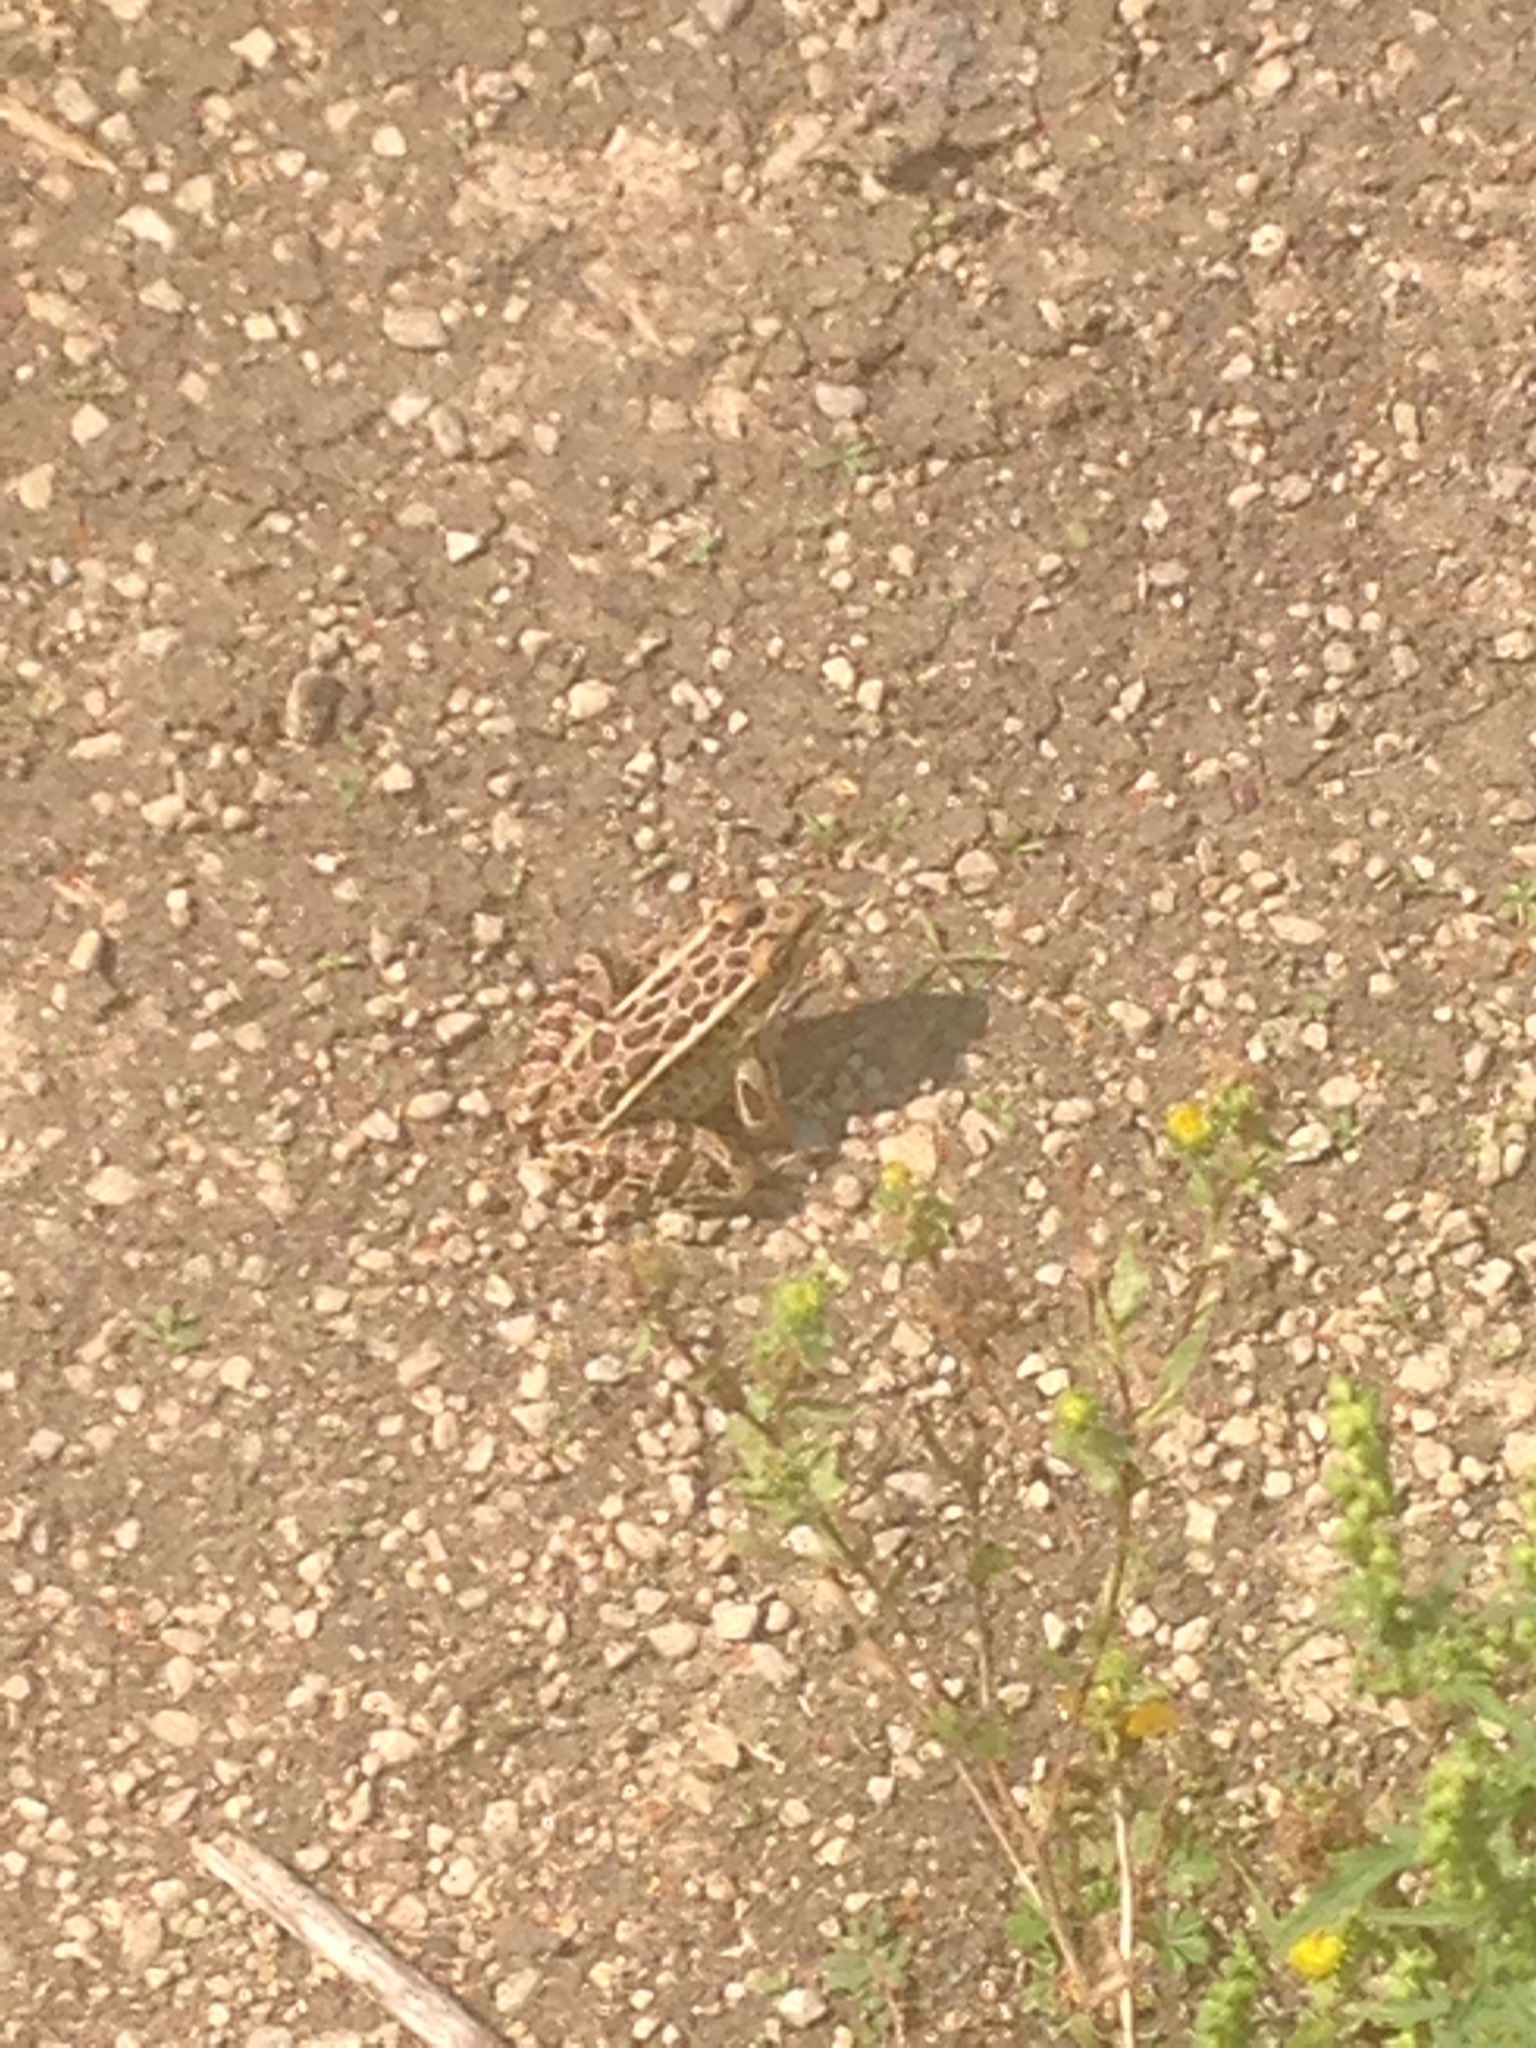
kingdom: Animalia
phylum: Chordata
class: Amphibia
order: Anura
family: Ranidae
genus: Lithobates
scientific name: Lithobates pipiens
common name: Northern leopard frog
